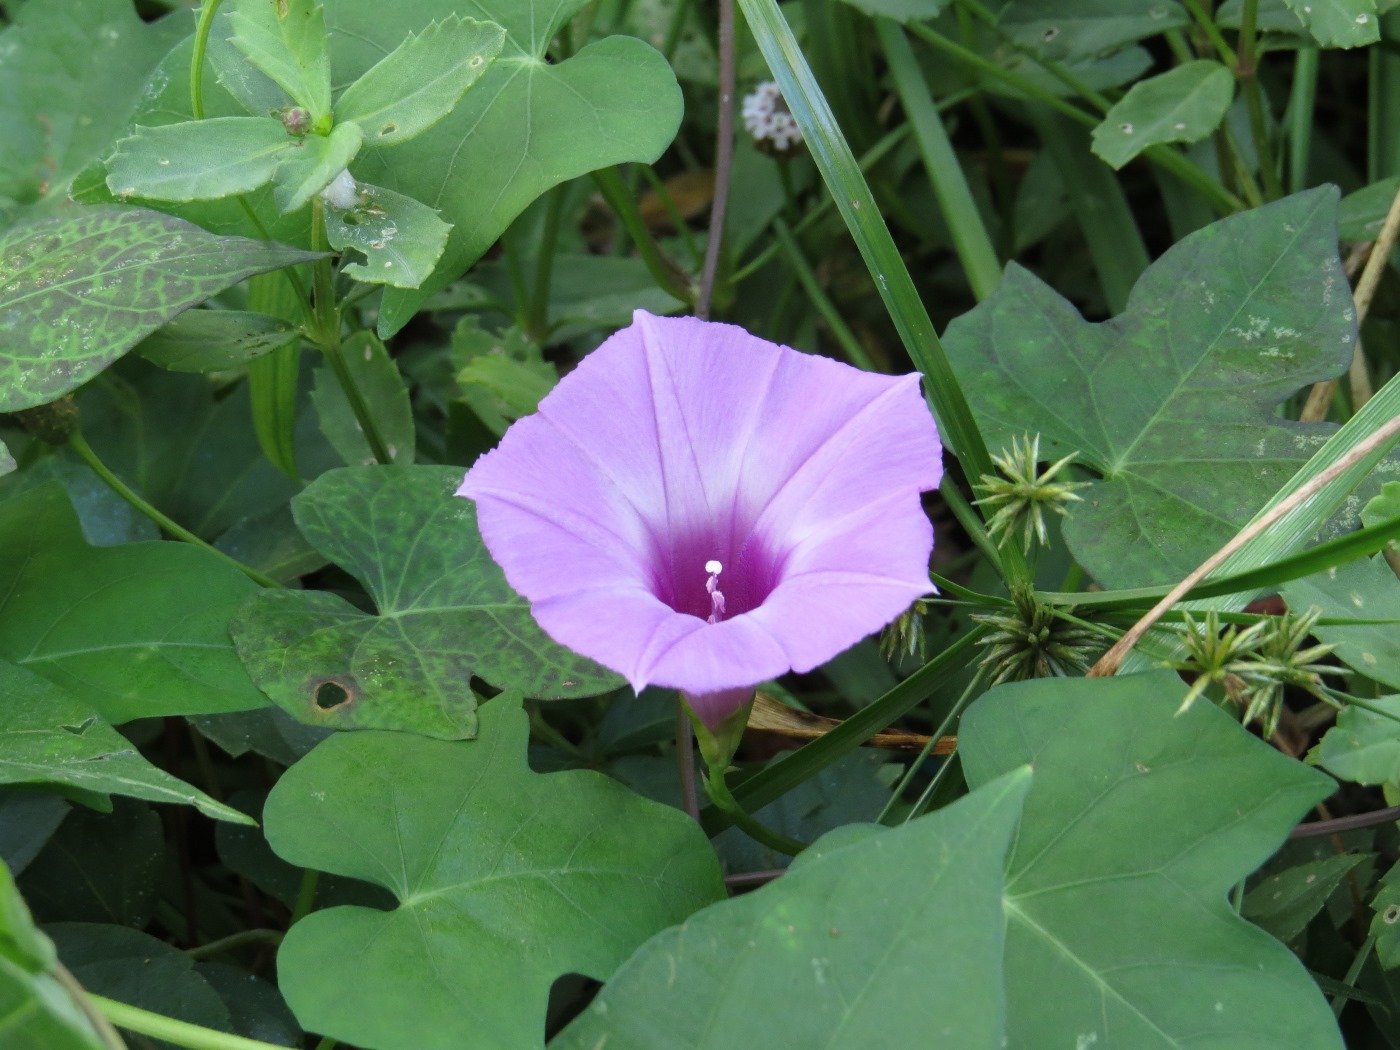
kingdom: Plantae
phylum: Tracheophyta
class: Magnoliopsida
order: Solanales
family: Convolvulaceae
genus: Ipomoea
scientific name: Ipomoea cordatotriloba
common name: Cotton morning glory
